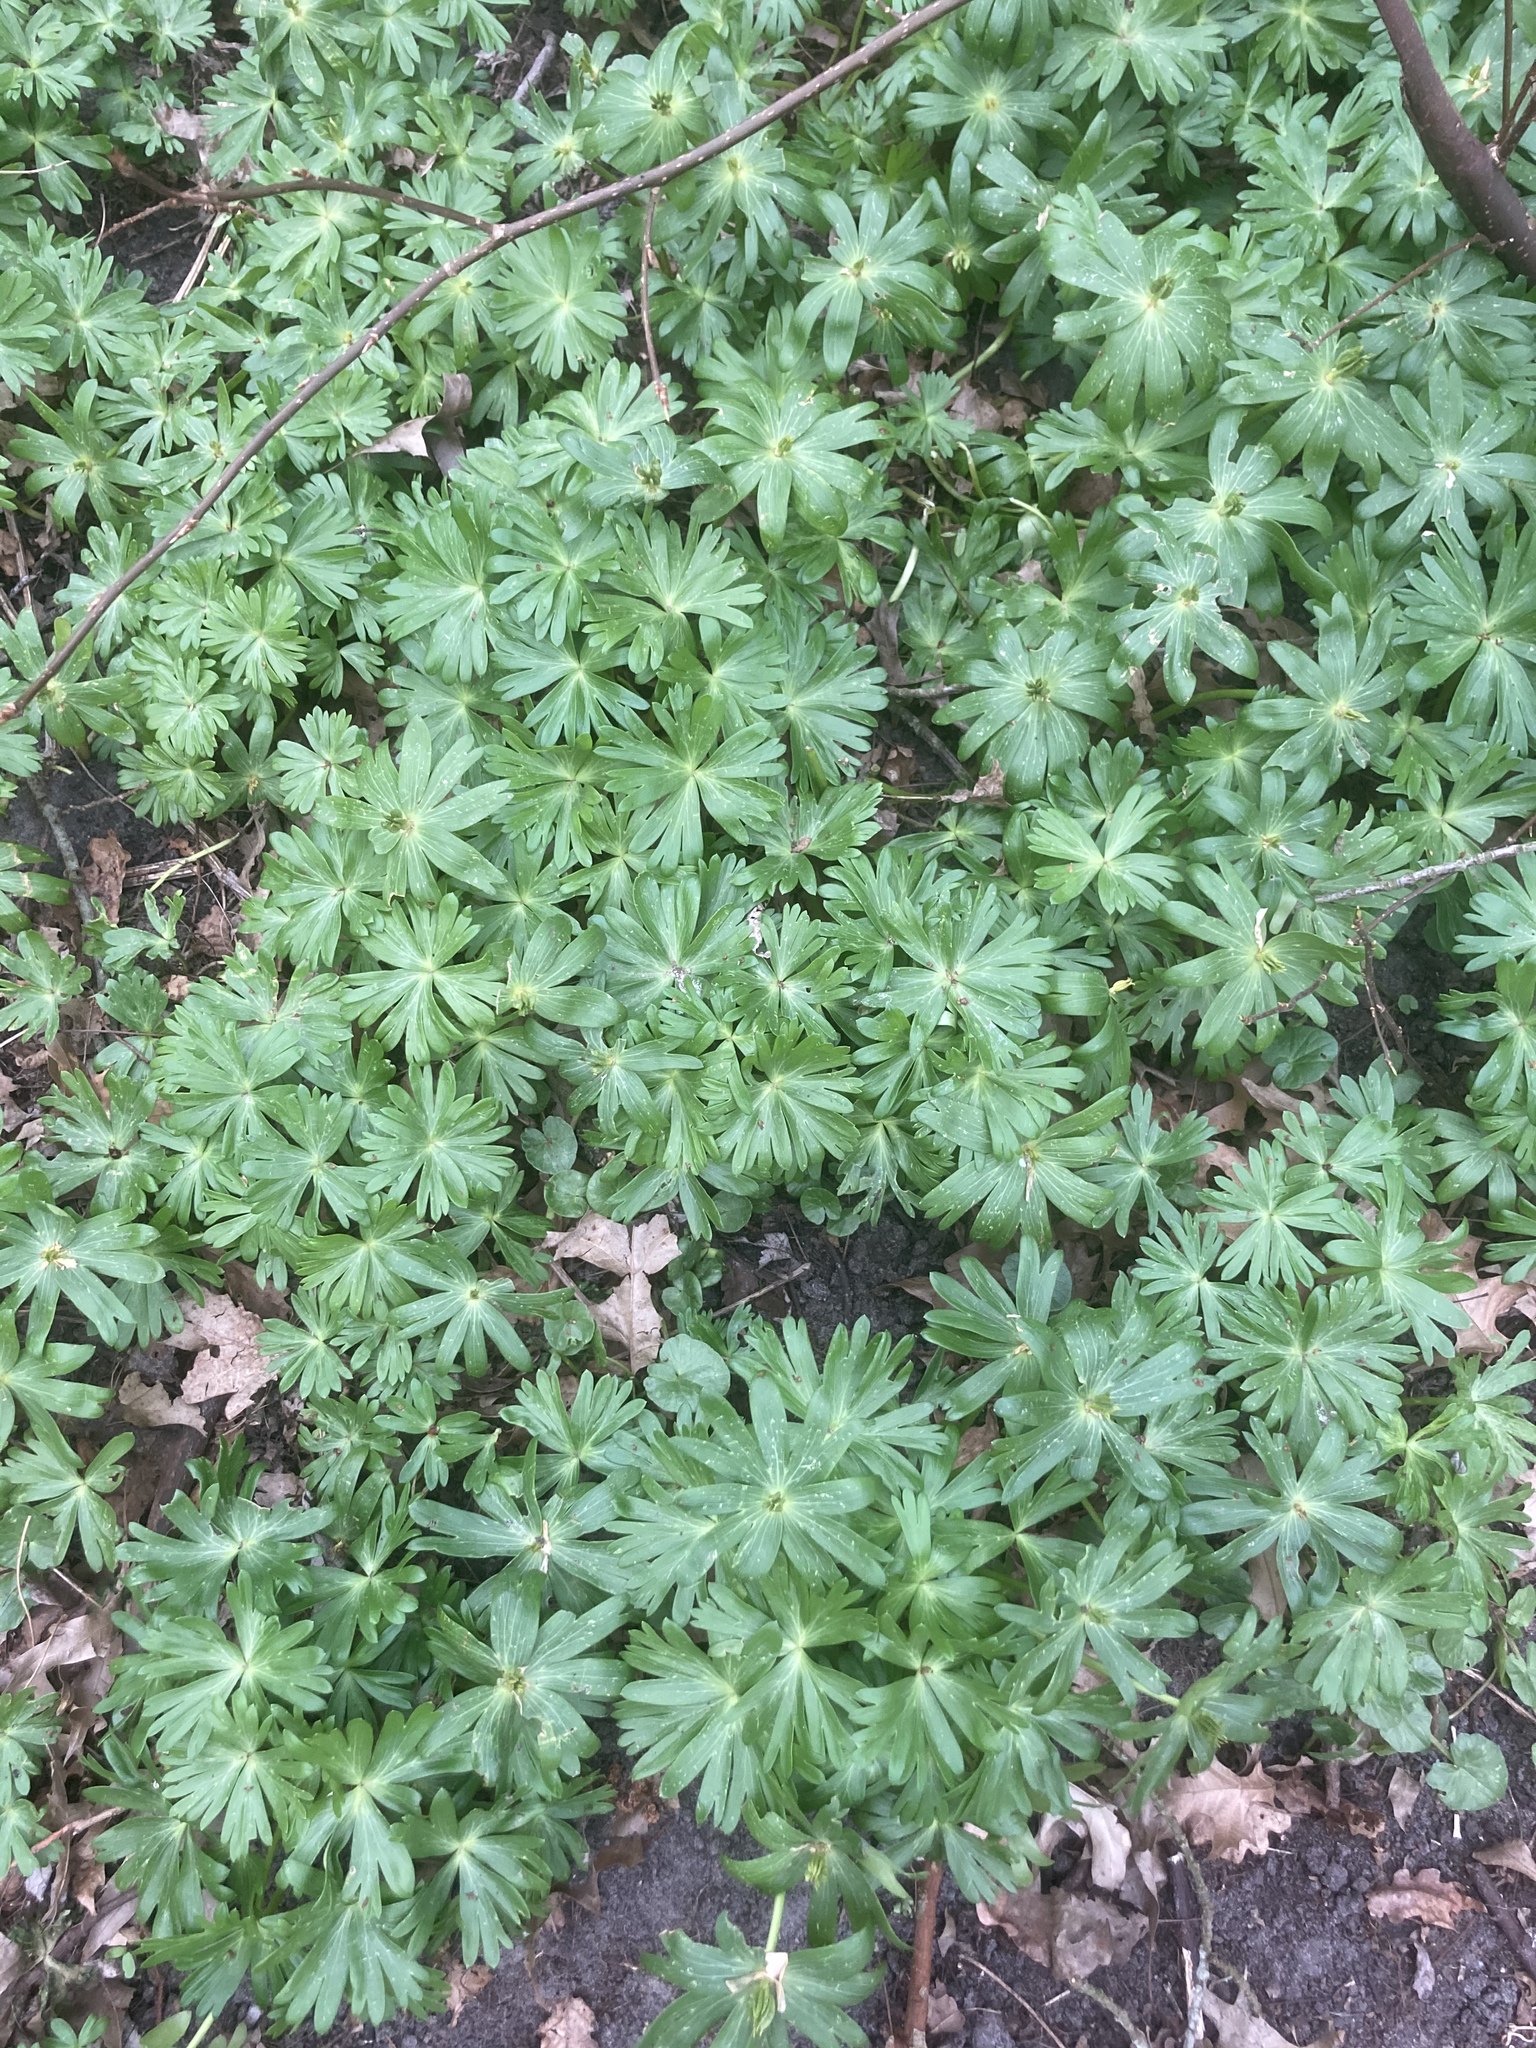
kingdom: Plantae
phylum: Tracheophyta
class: Magnoliopsida
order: Ranunculales
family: Ranunculaceae
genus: Eranthis
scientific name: Eranthis hyemalis
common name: Winter aconite
